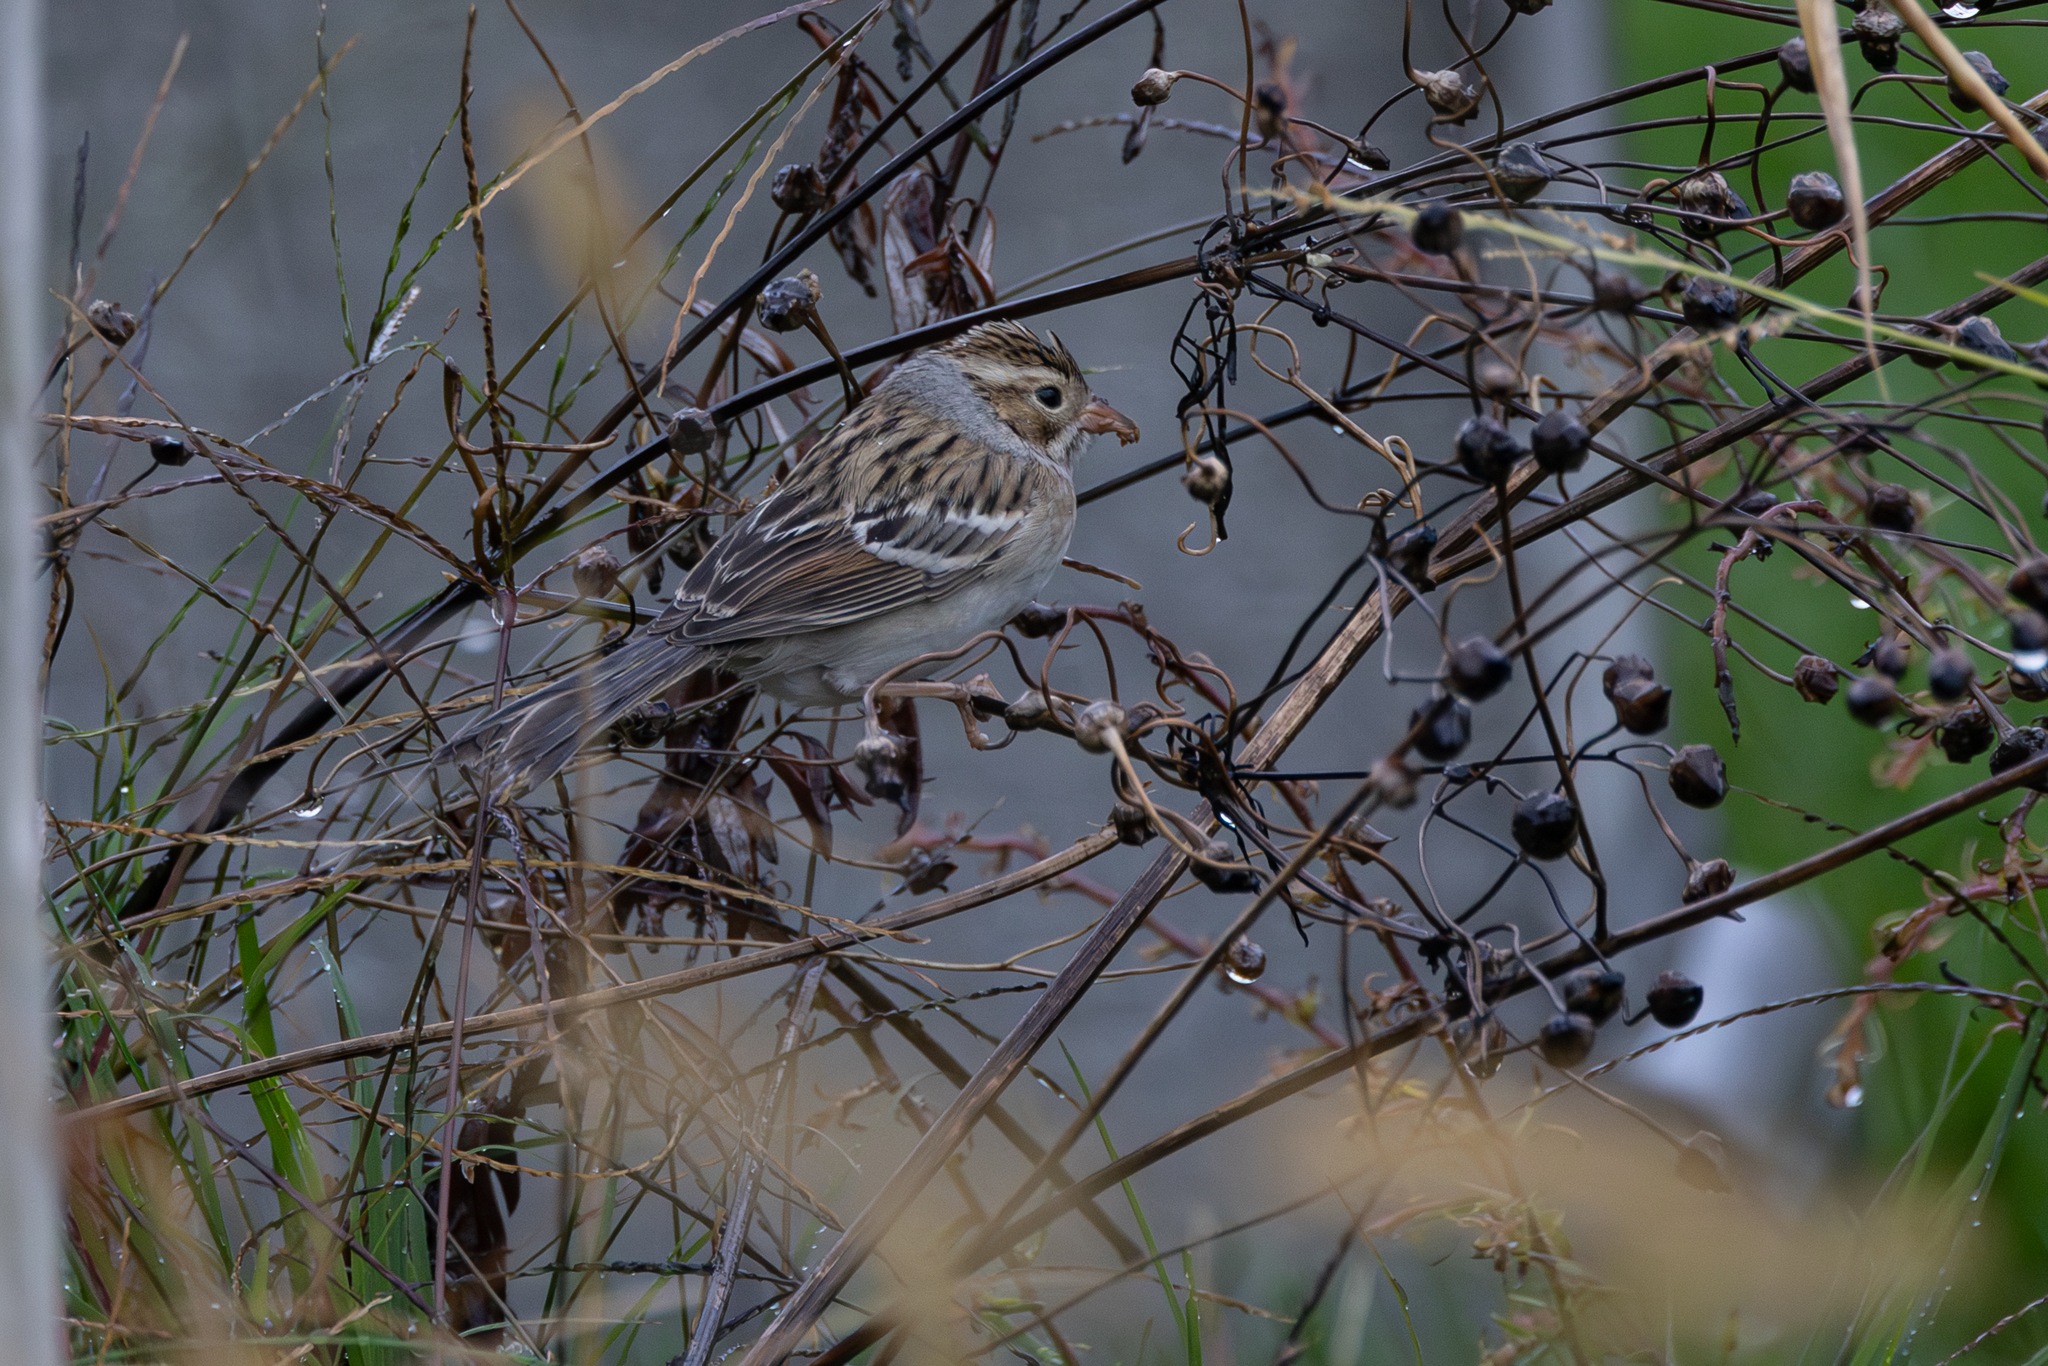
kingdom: Animalia
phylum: Chordata
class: Aves
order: Passeriformes
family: Passerellidae
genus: Spizella
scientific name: Spizella pallida
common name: Clay-colored sparrow
